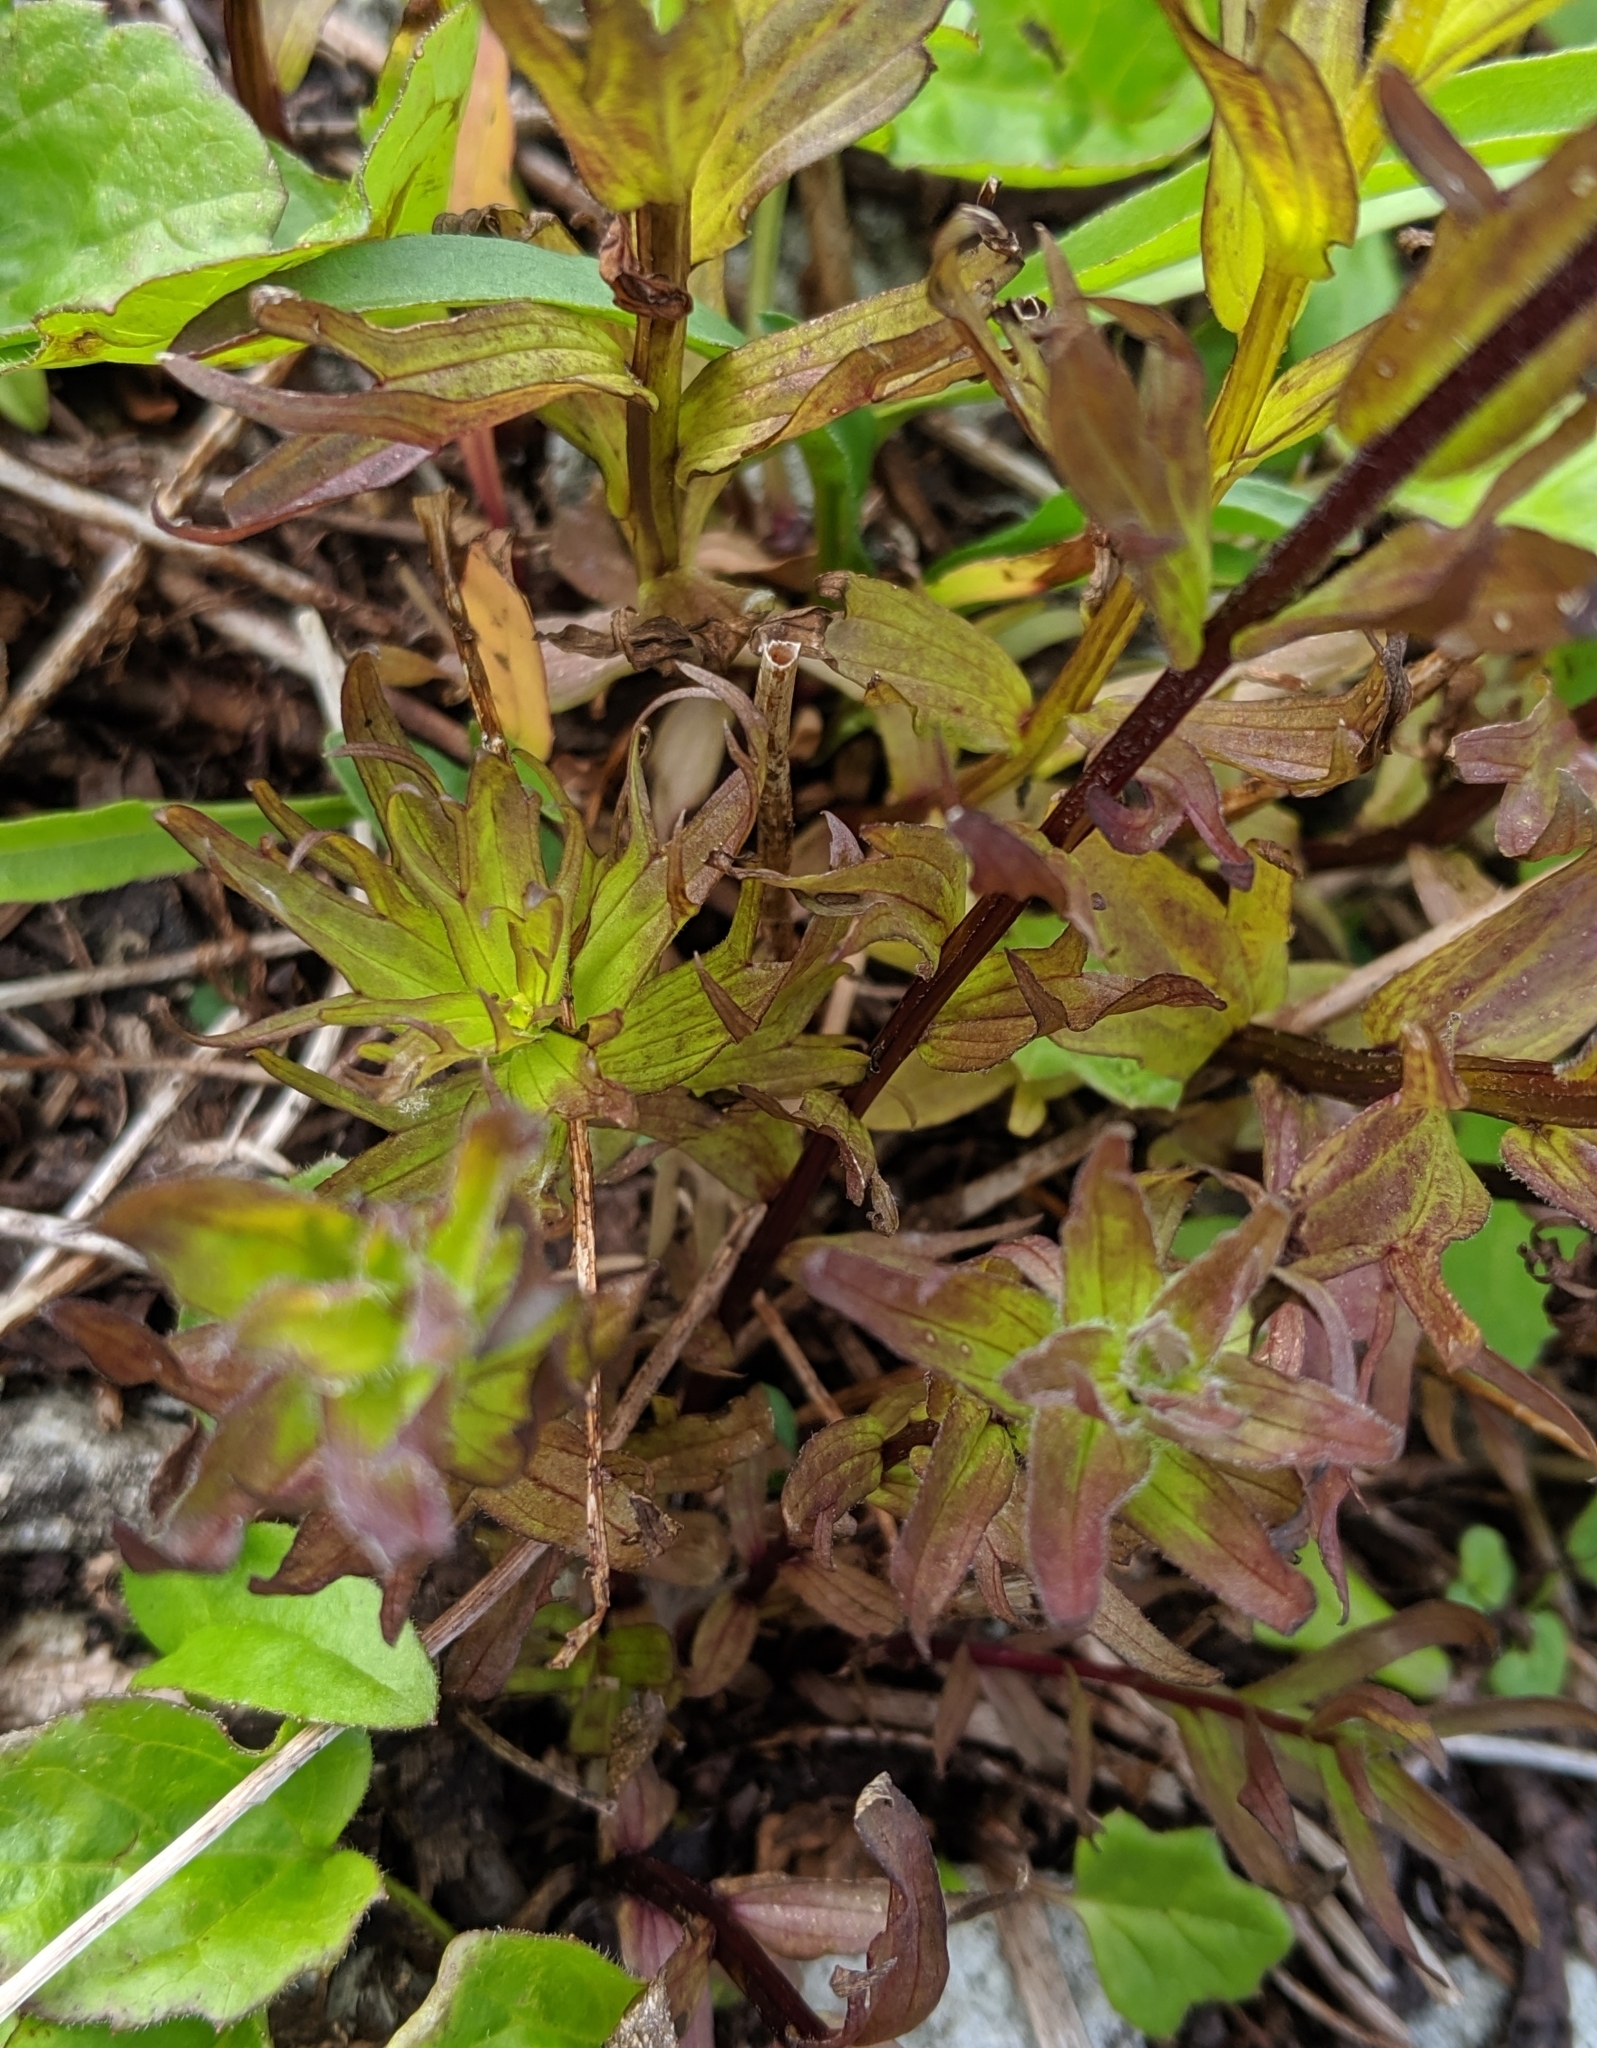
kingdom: Plantae
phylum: Tracheophyta
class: Magnoliopsida
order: Lamiales
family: Orobanchaceae
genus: Castilleja
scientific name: Castilleja parviflora
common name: Mountain paintbrush
